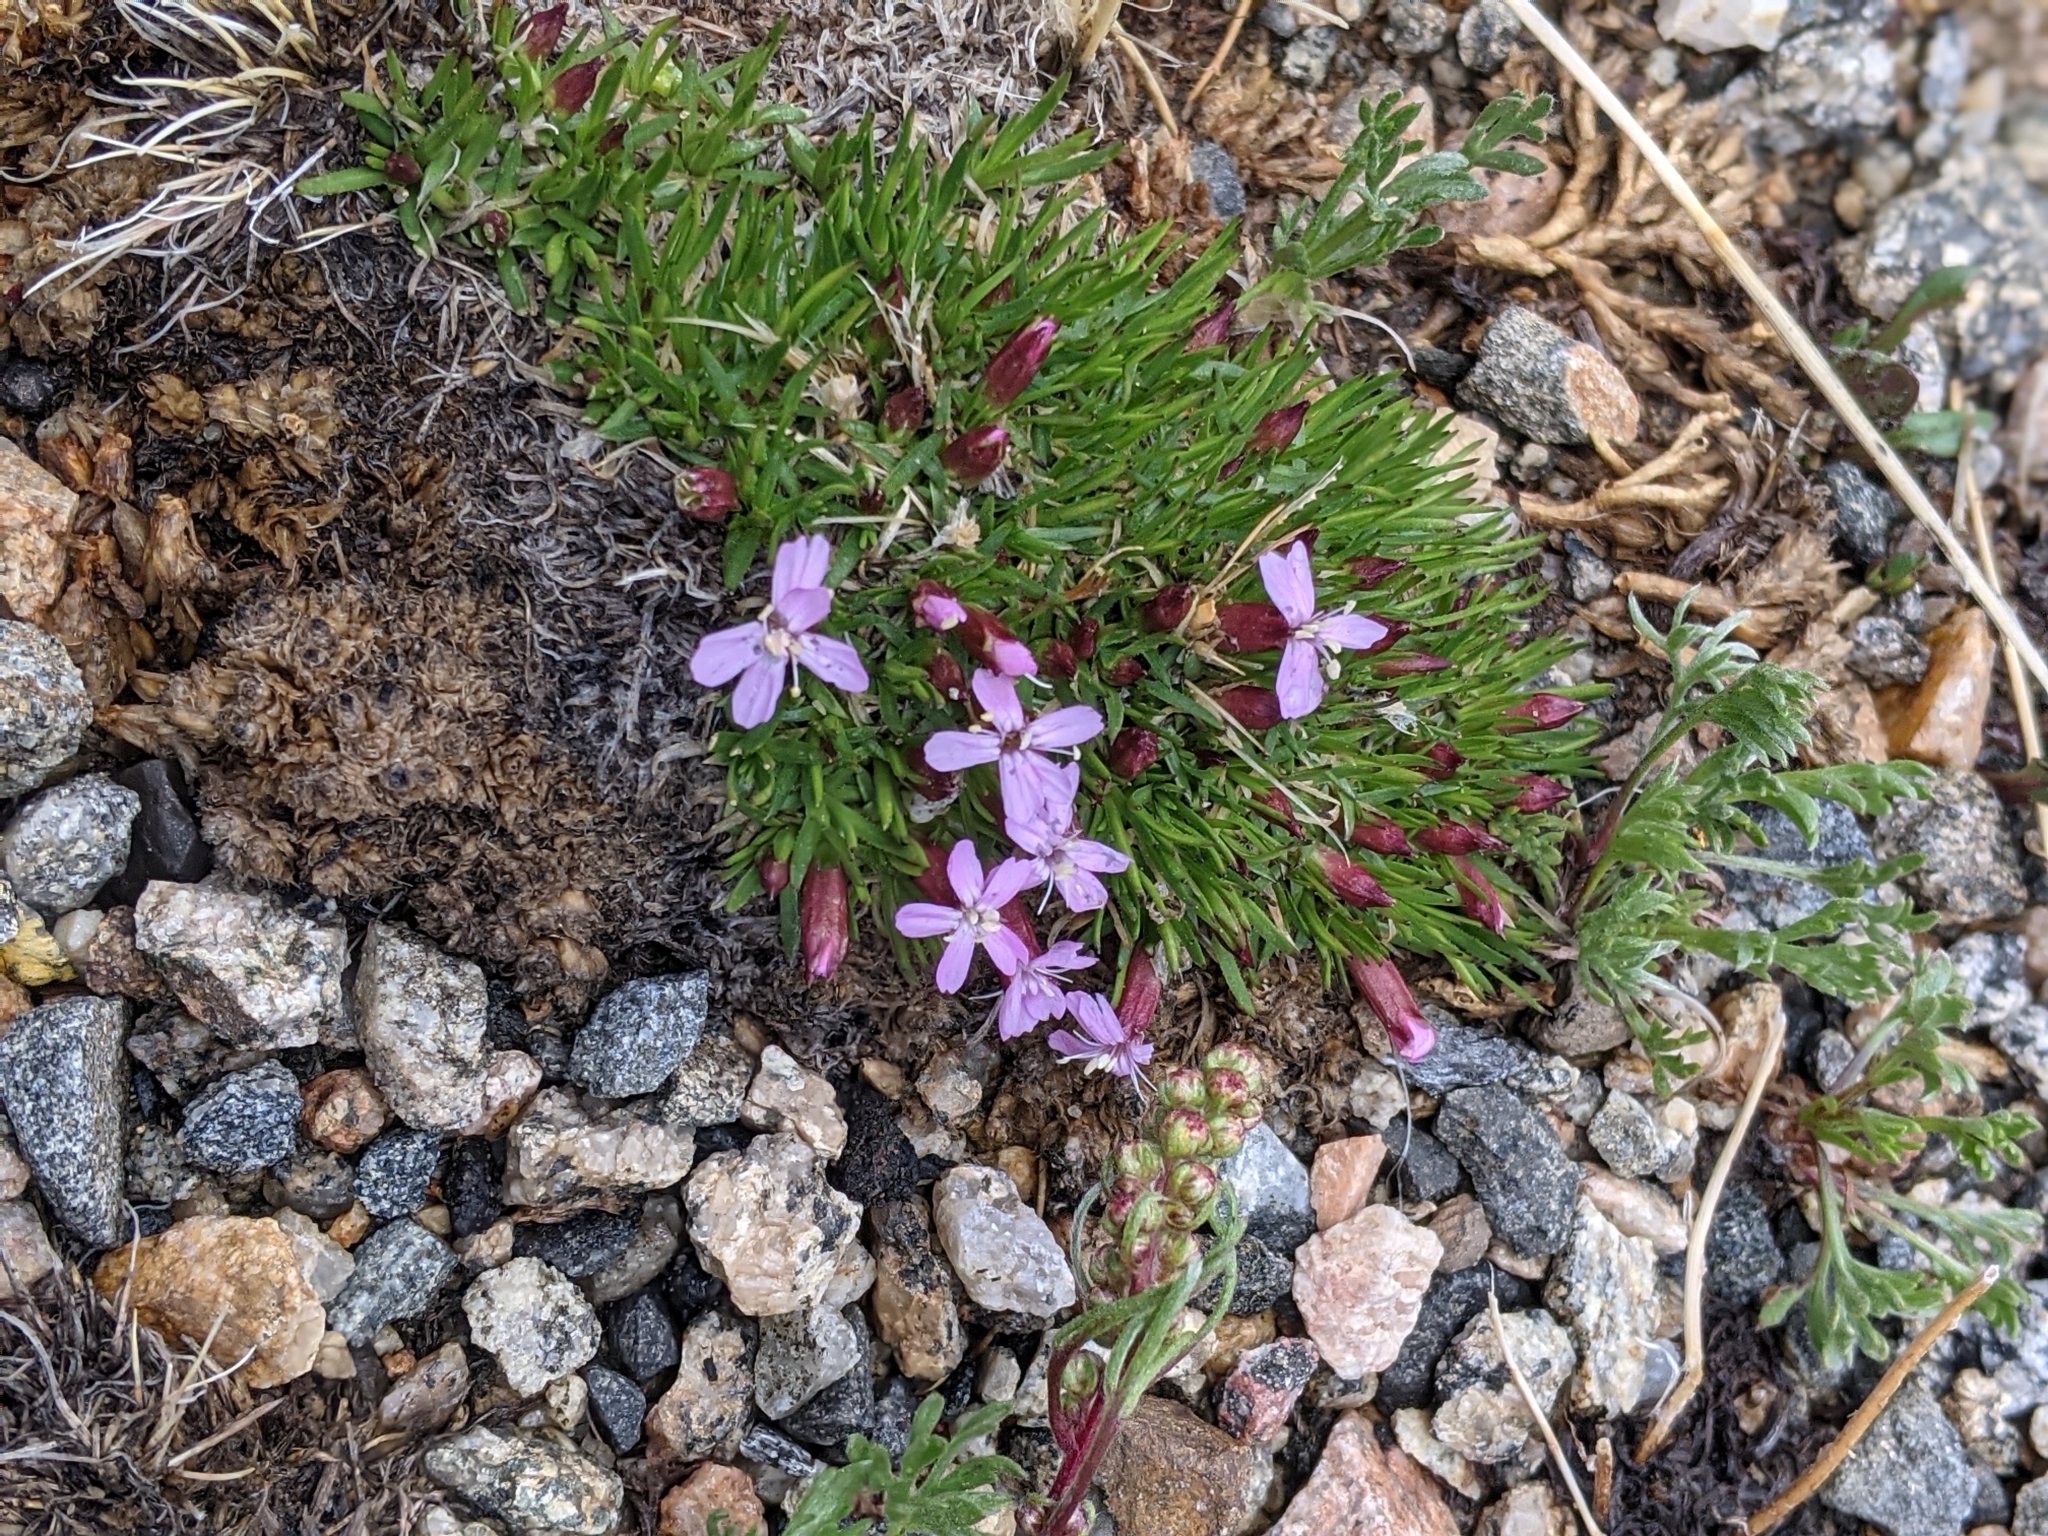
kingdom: Plantae
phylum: Tracheophyta
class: Magnoliopsida
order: Caryophyllales
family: Caryophyllaceae
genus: Silene
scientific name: Silene acaulis
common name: Moss campion
